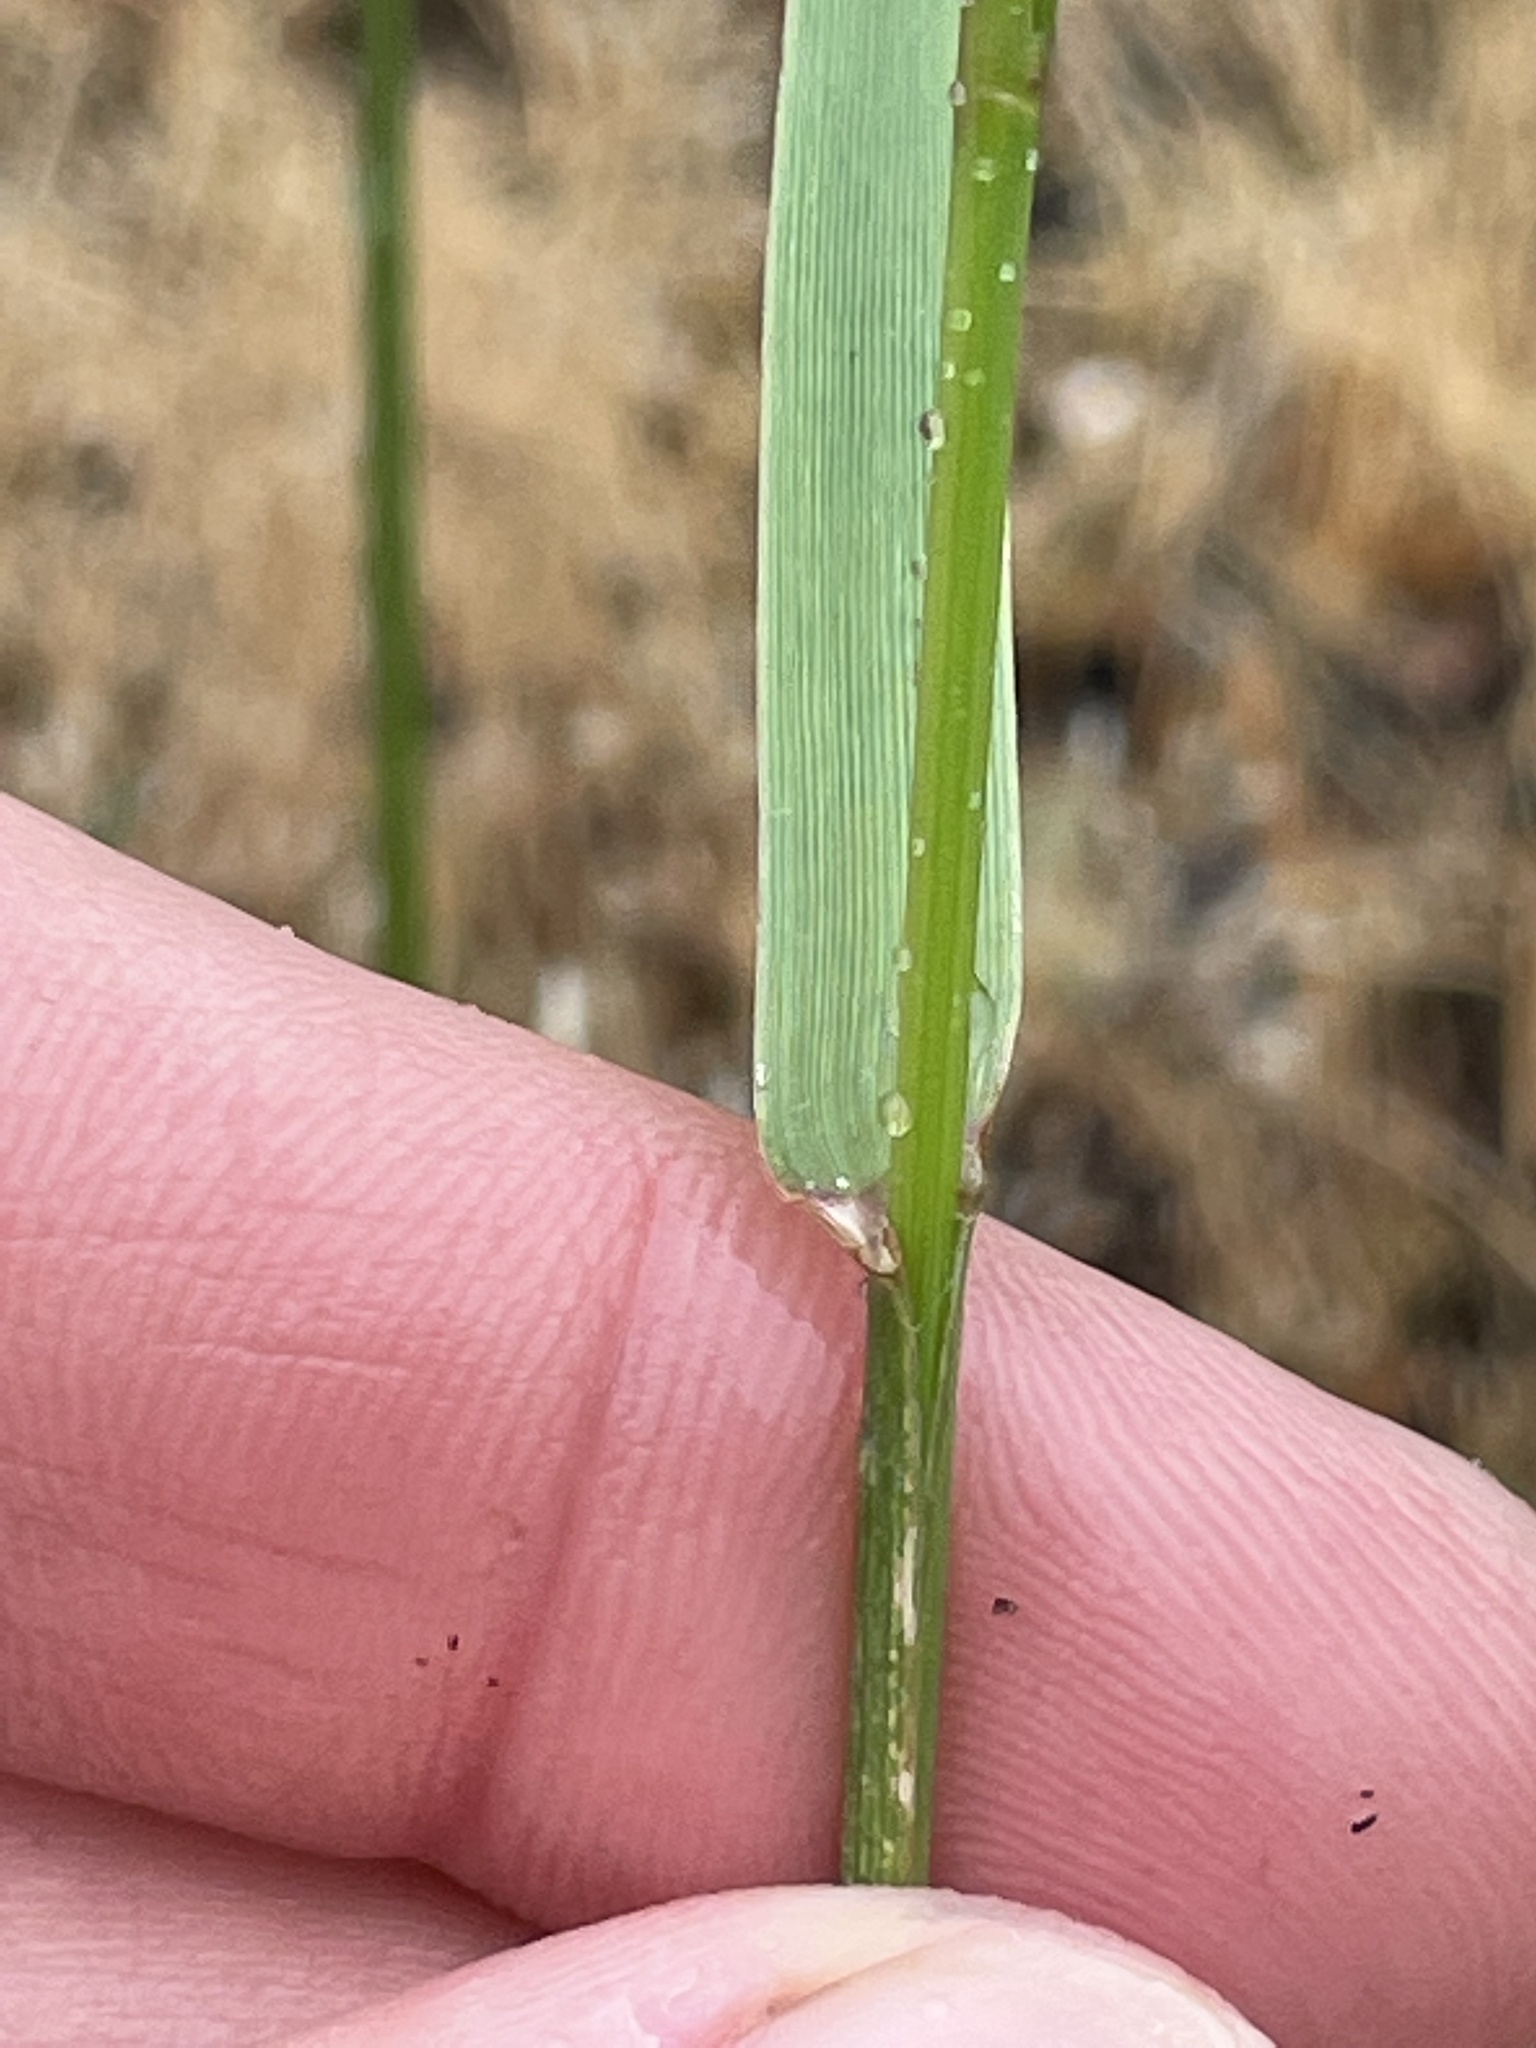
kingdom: Plantae
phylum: Tracheophyta
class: Liliopsida
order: Poales
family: Poaceae
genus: Lolium
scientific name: Lolium perenne
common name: Perennial ryegrass
